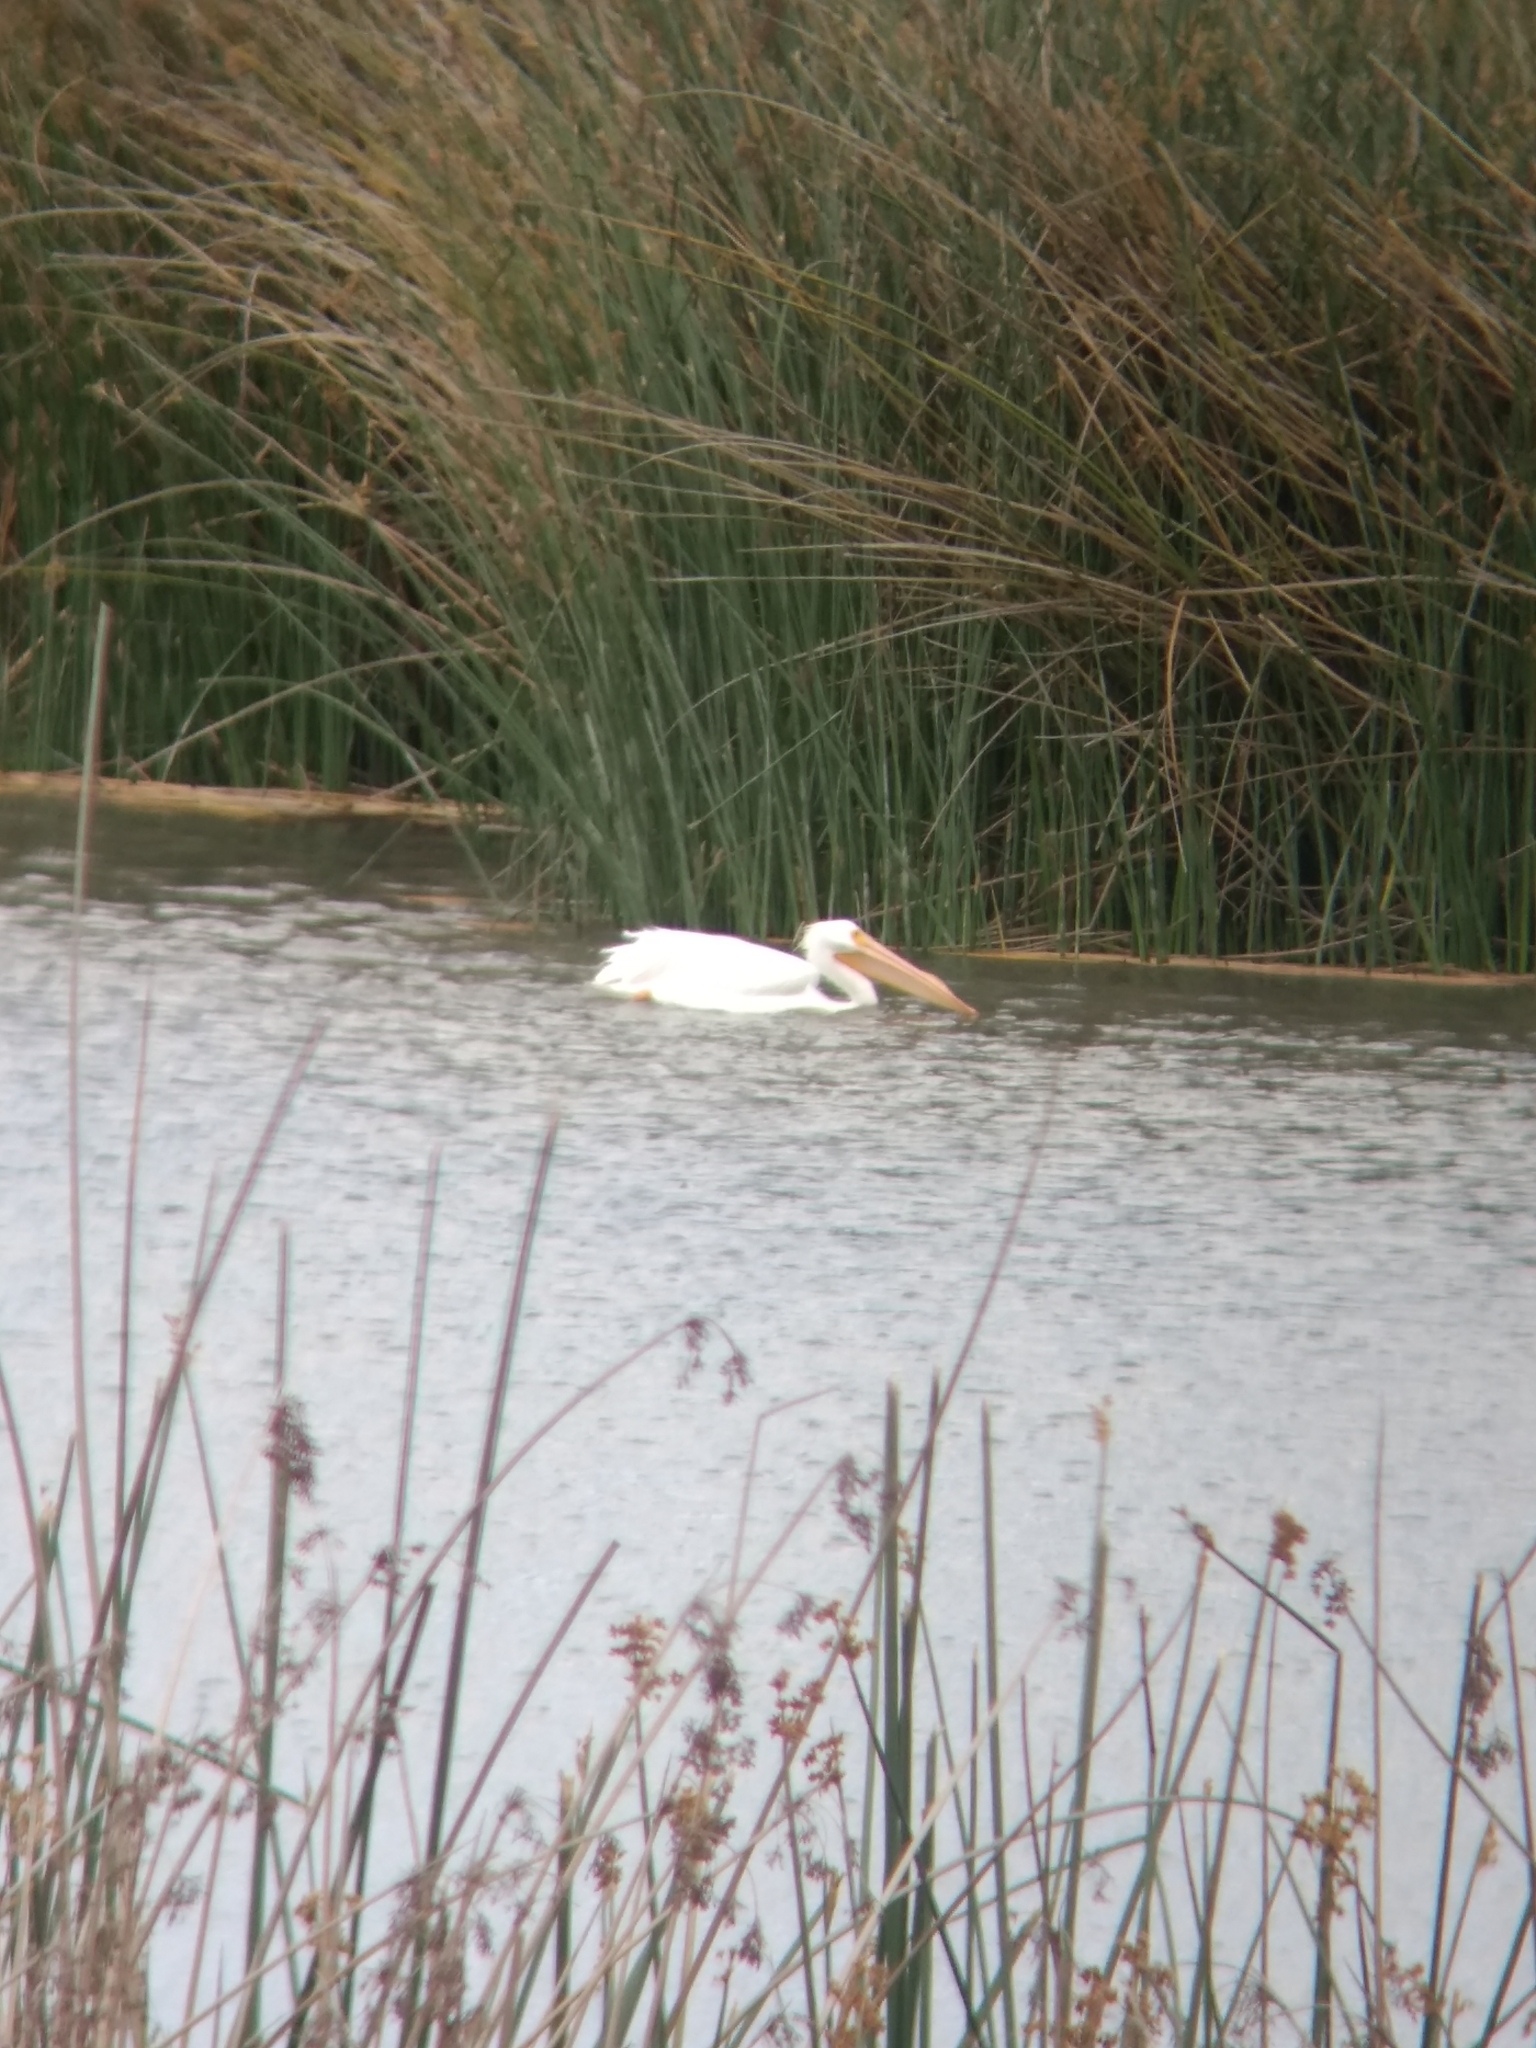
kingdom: Animalia
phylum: Chordata
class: Aves
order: Pelecaniformes
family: Pelecanidae
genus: Pelecanus
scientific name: Pelecanus erythrorhynchos
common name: American white pelican
